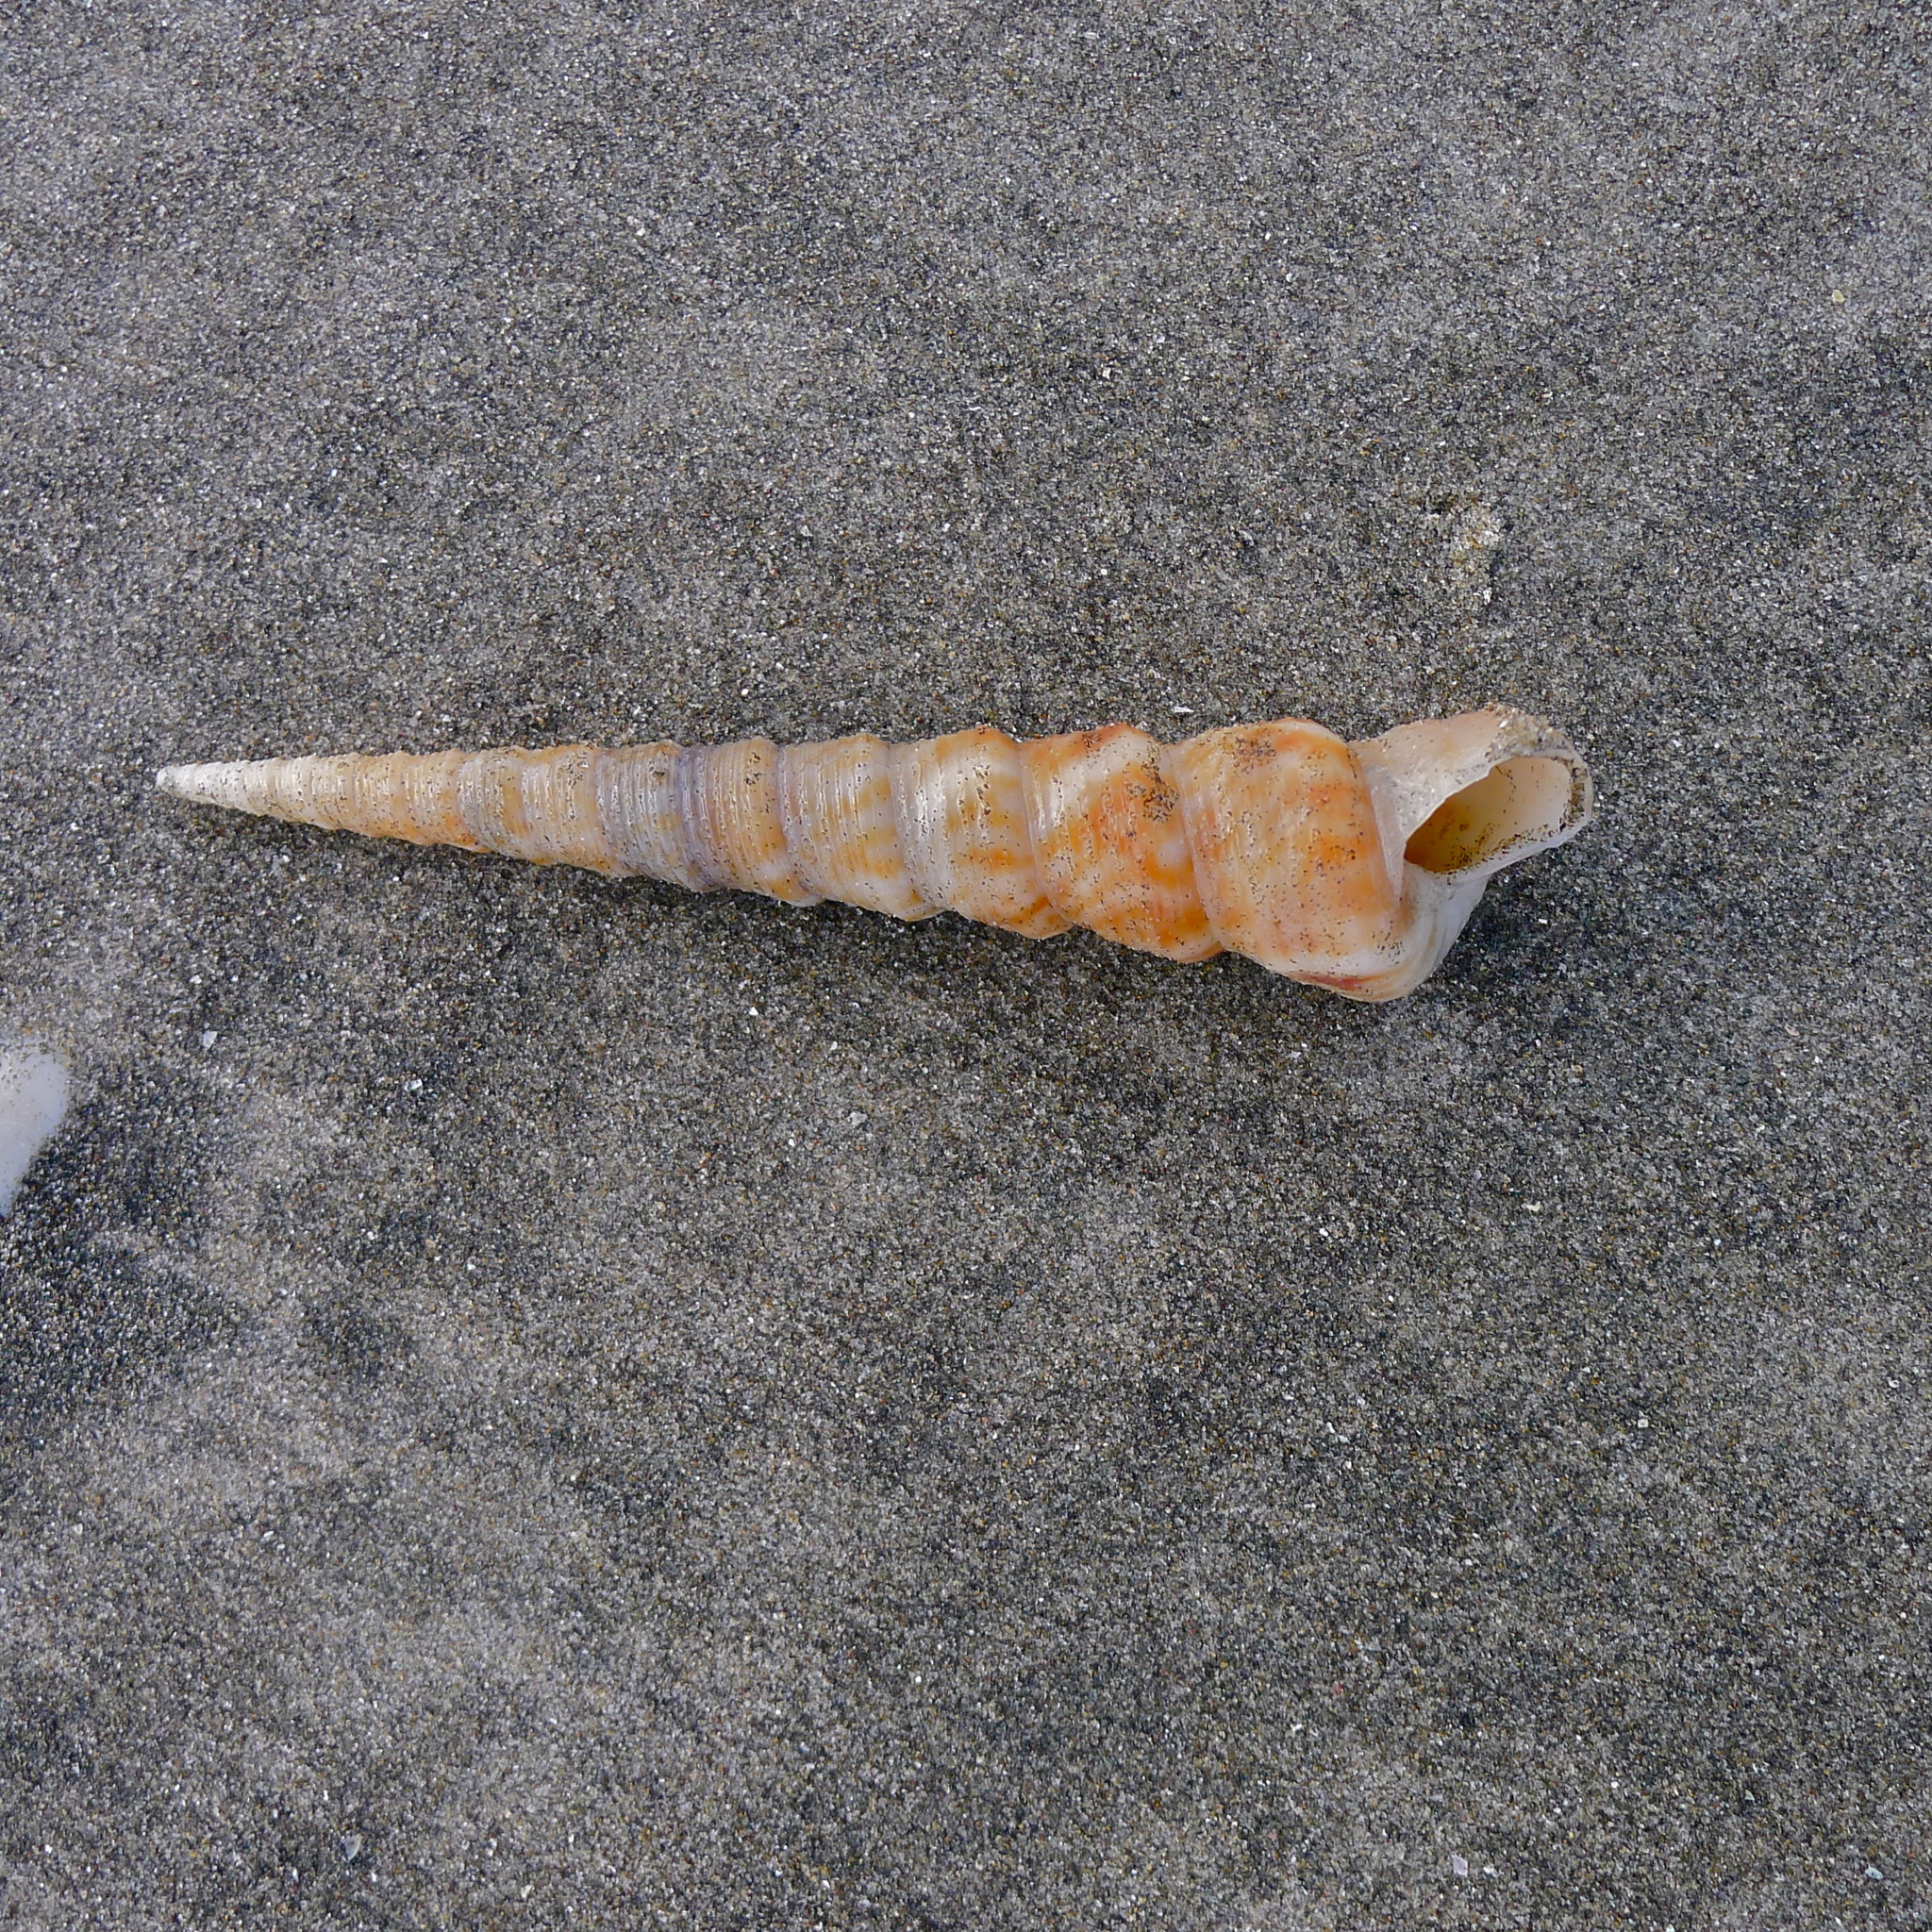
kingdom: Animalia
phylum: Mollusca
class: Gastropoda
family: Turritellidae
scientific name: Turritellidae
